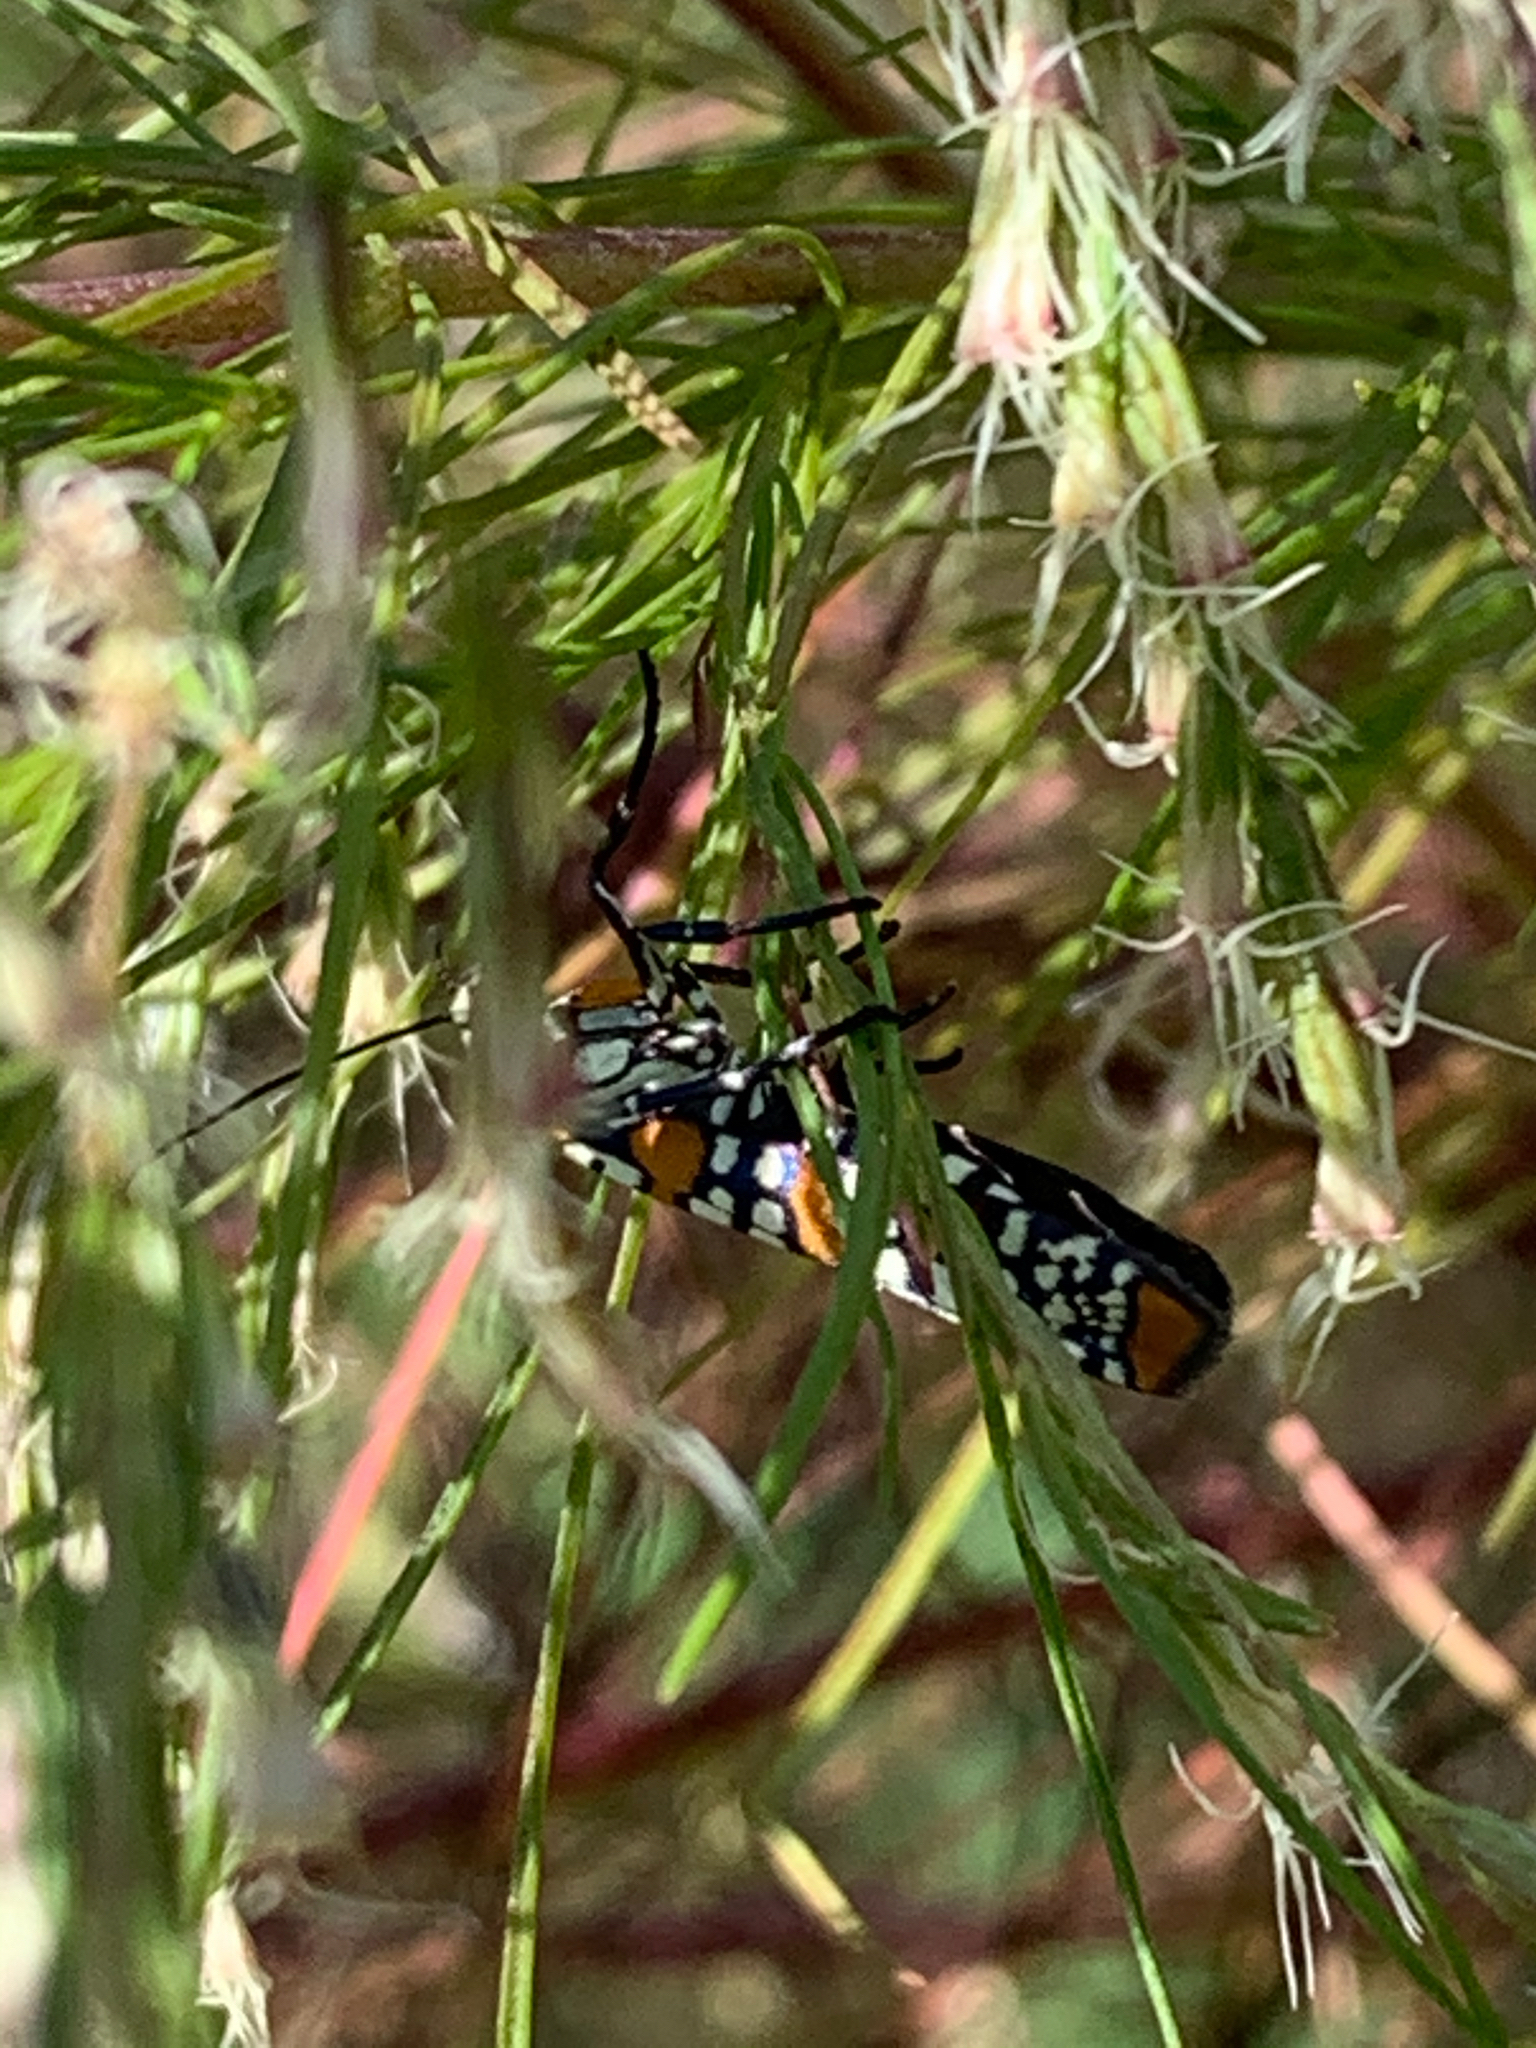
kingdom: Animalia
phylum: Arthropoda
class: Insecta
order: Lepidoptera
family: Attevidae
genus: Atteva
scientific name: Atteva punctella
